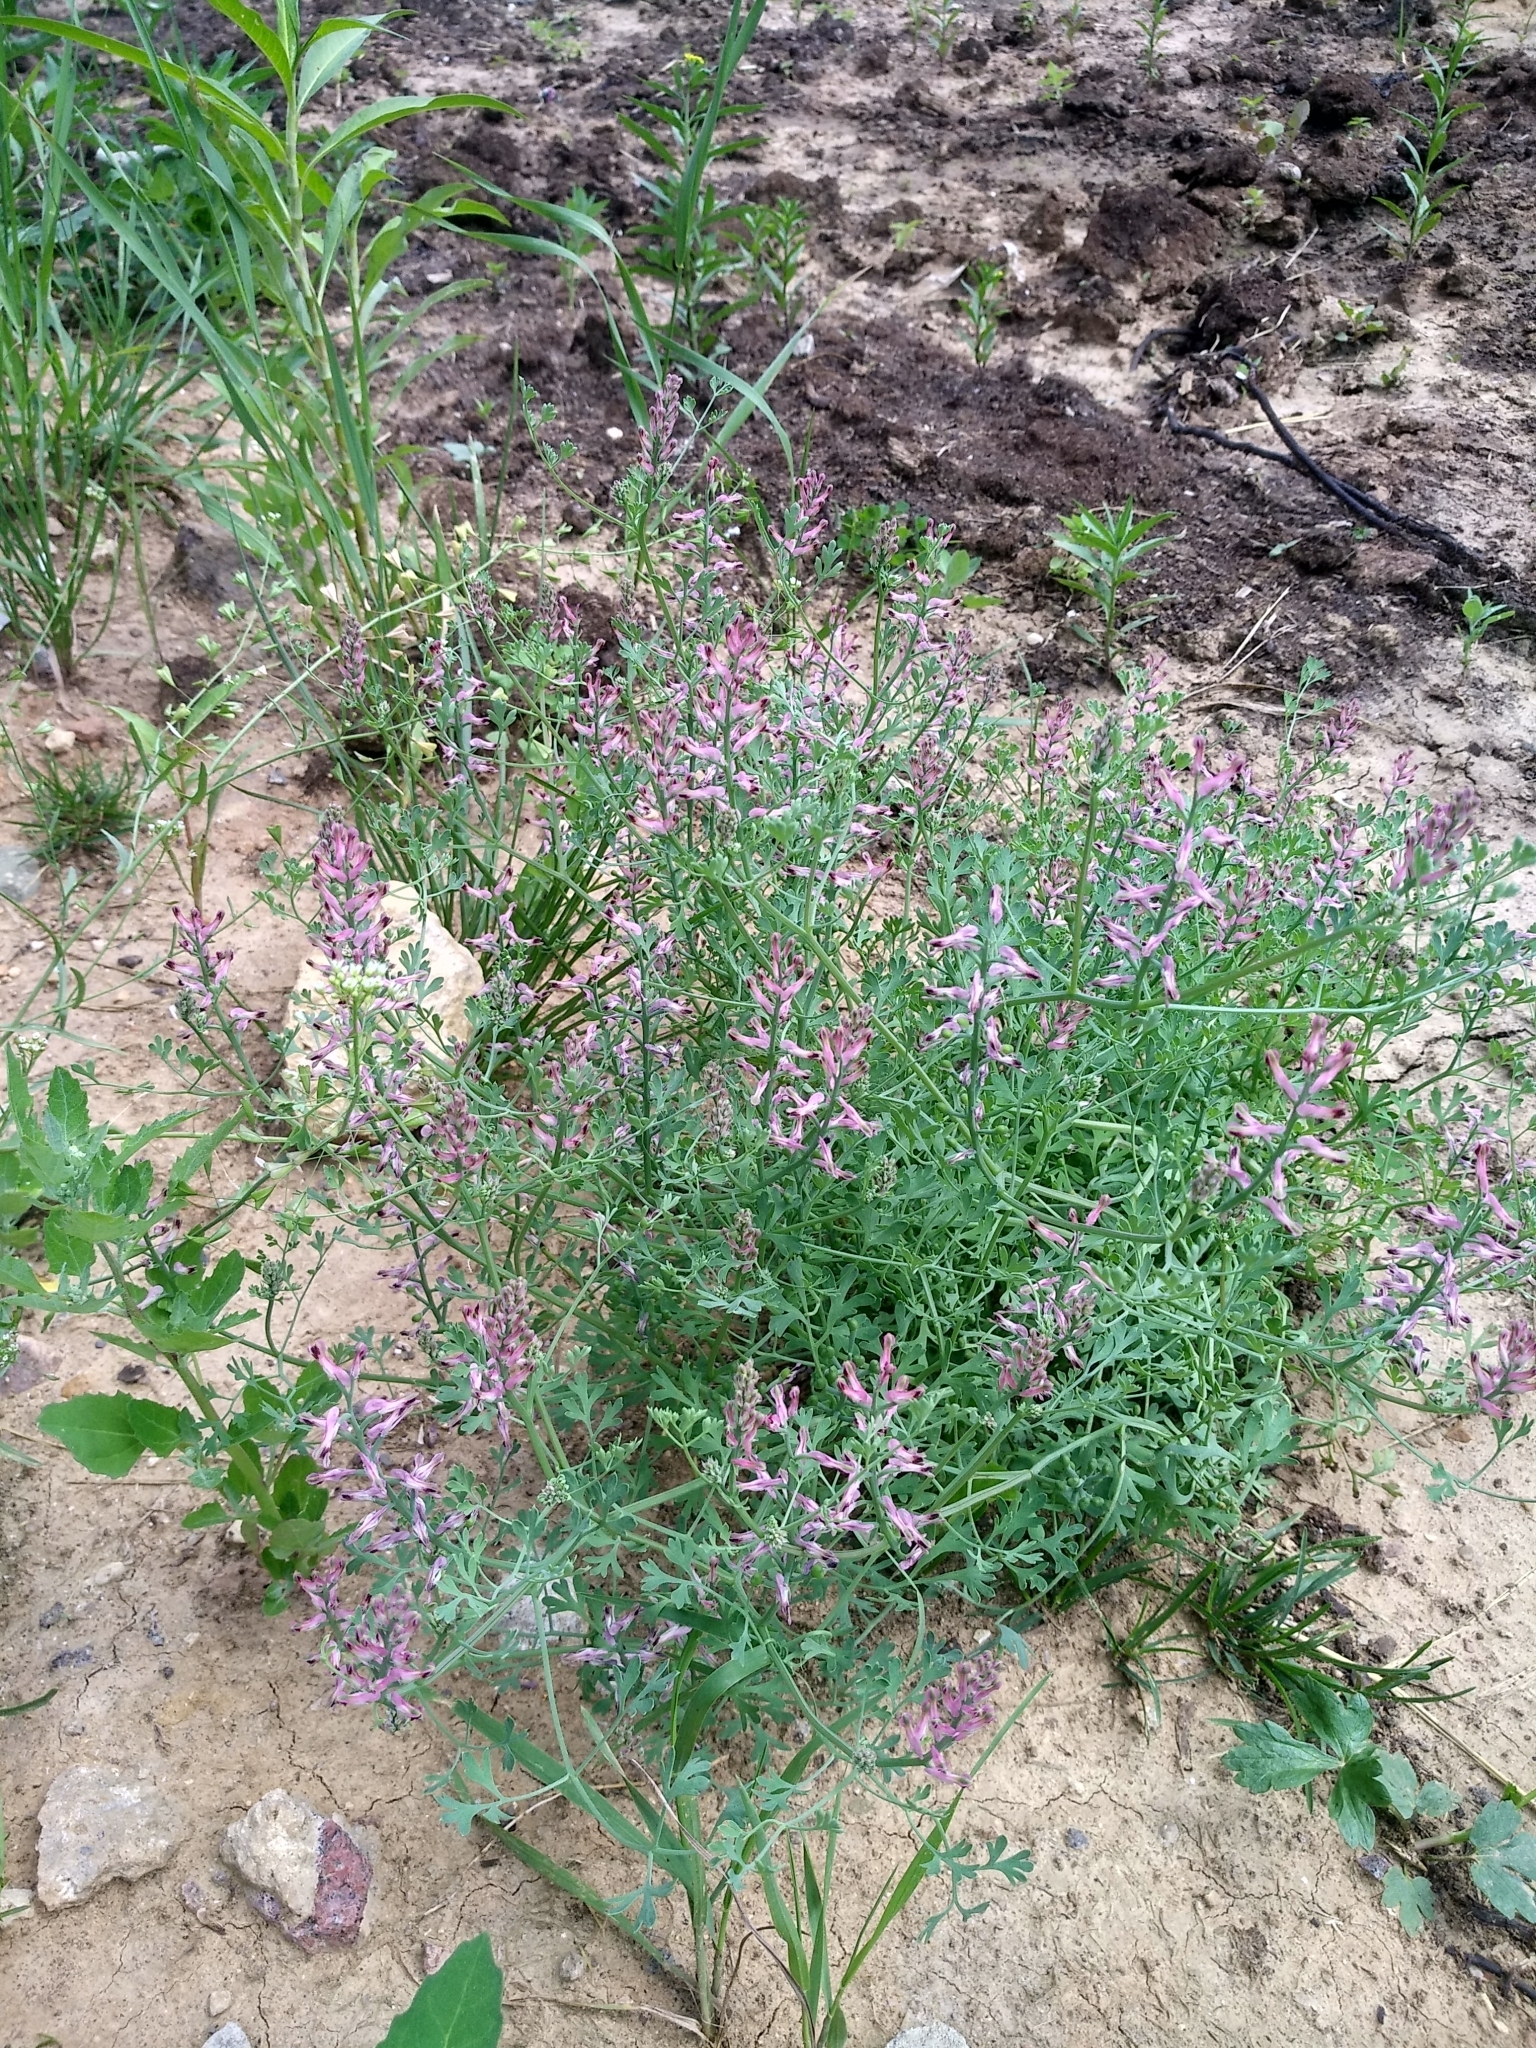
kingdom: Plantae
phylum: Tracheophyta
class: Magnoliopsida
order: Ranunculales
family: Papaveraceae
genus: Fumaria
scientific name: Fumaria officinalis
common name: Common fumitory
